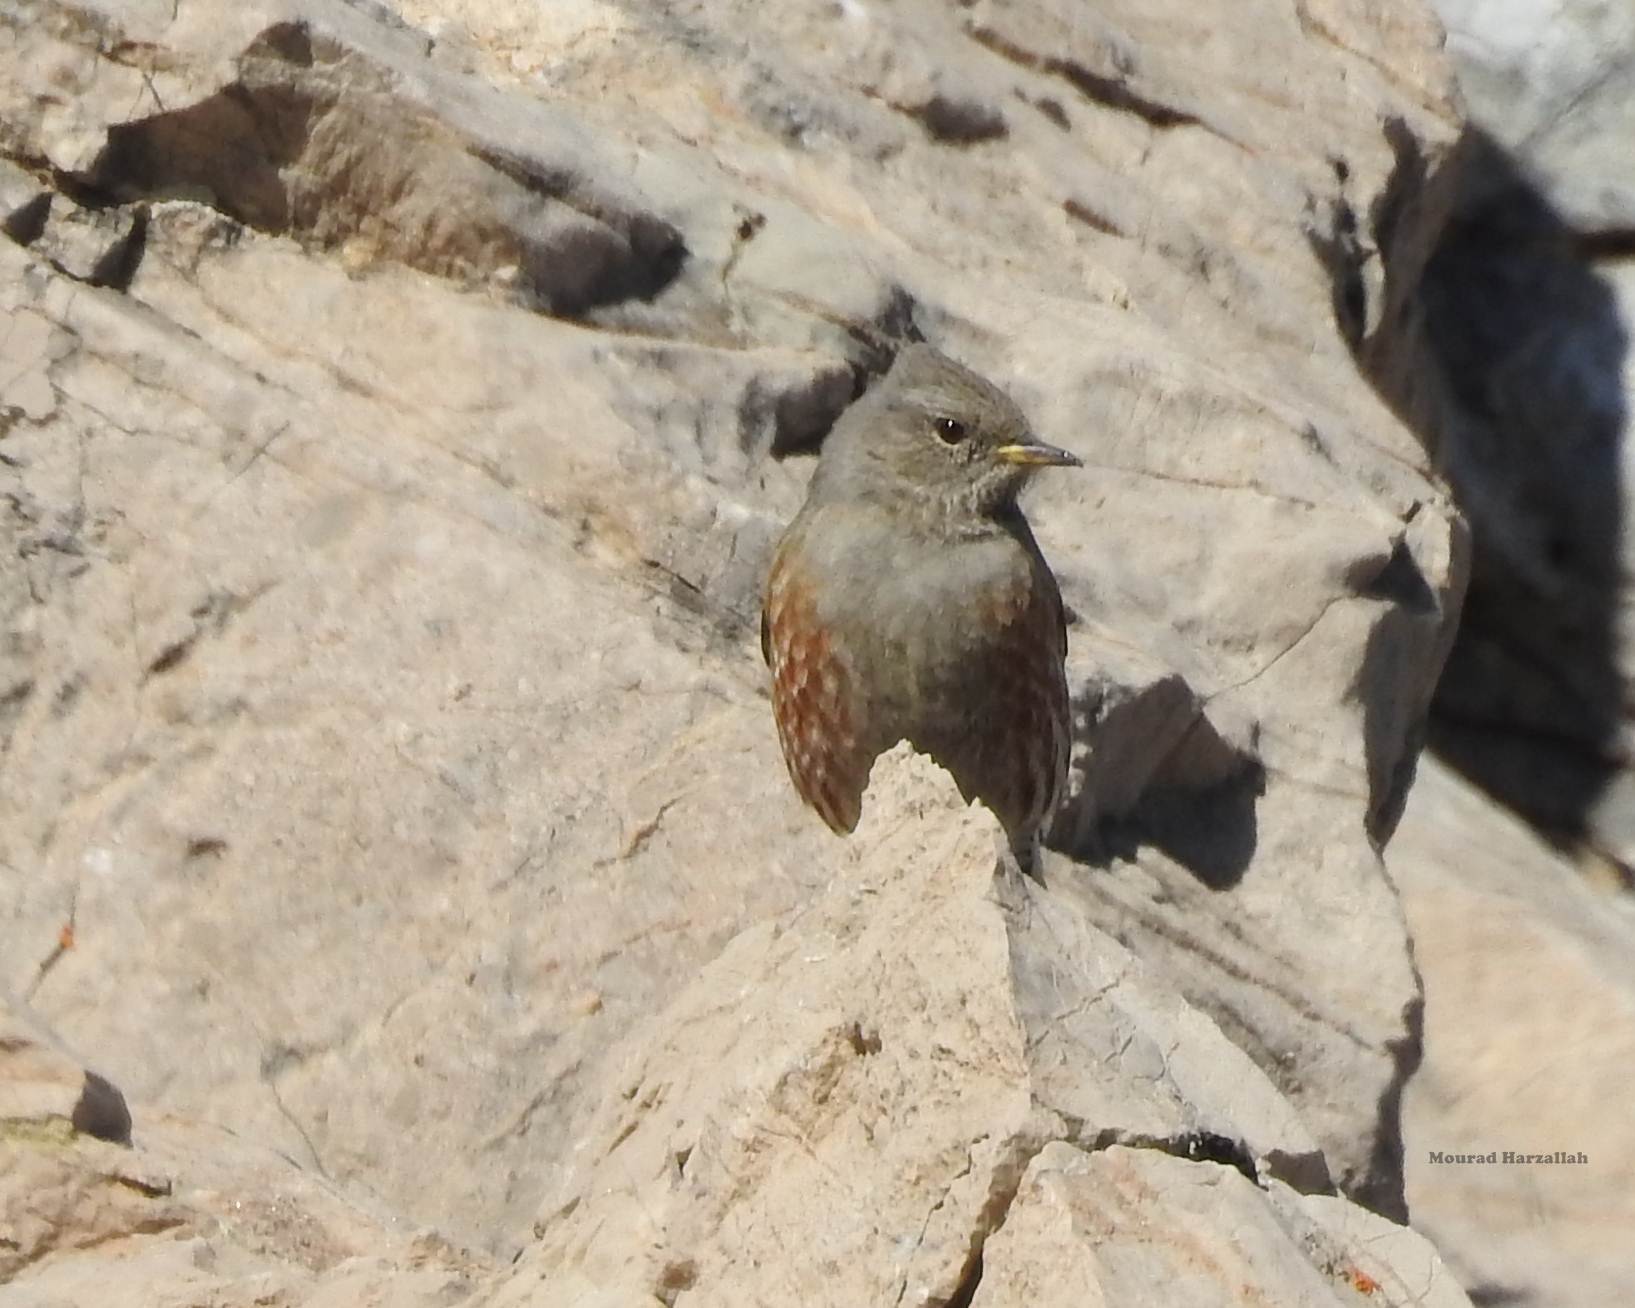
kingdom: Animalia
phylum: Chordata
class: Aves
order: Passeriformes
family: Prunellidae
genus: Prunella
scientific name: Prunella collaris
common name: Alpine accentor
